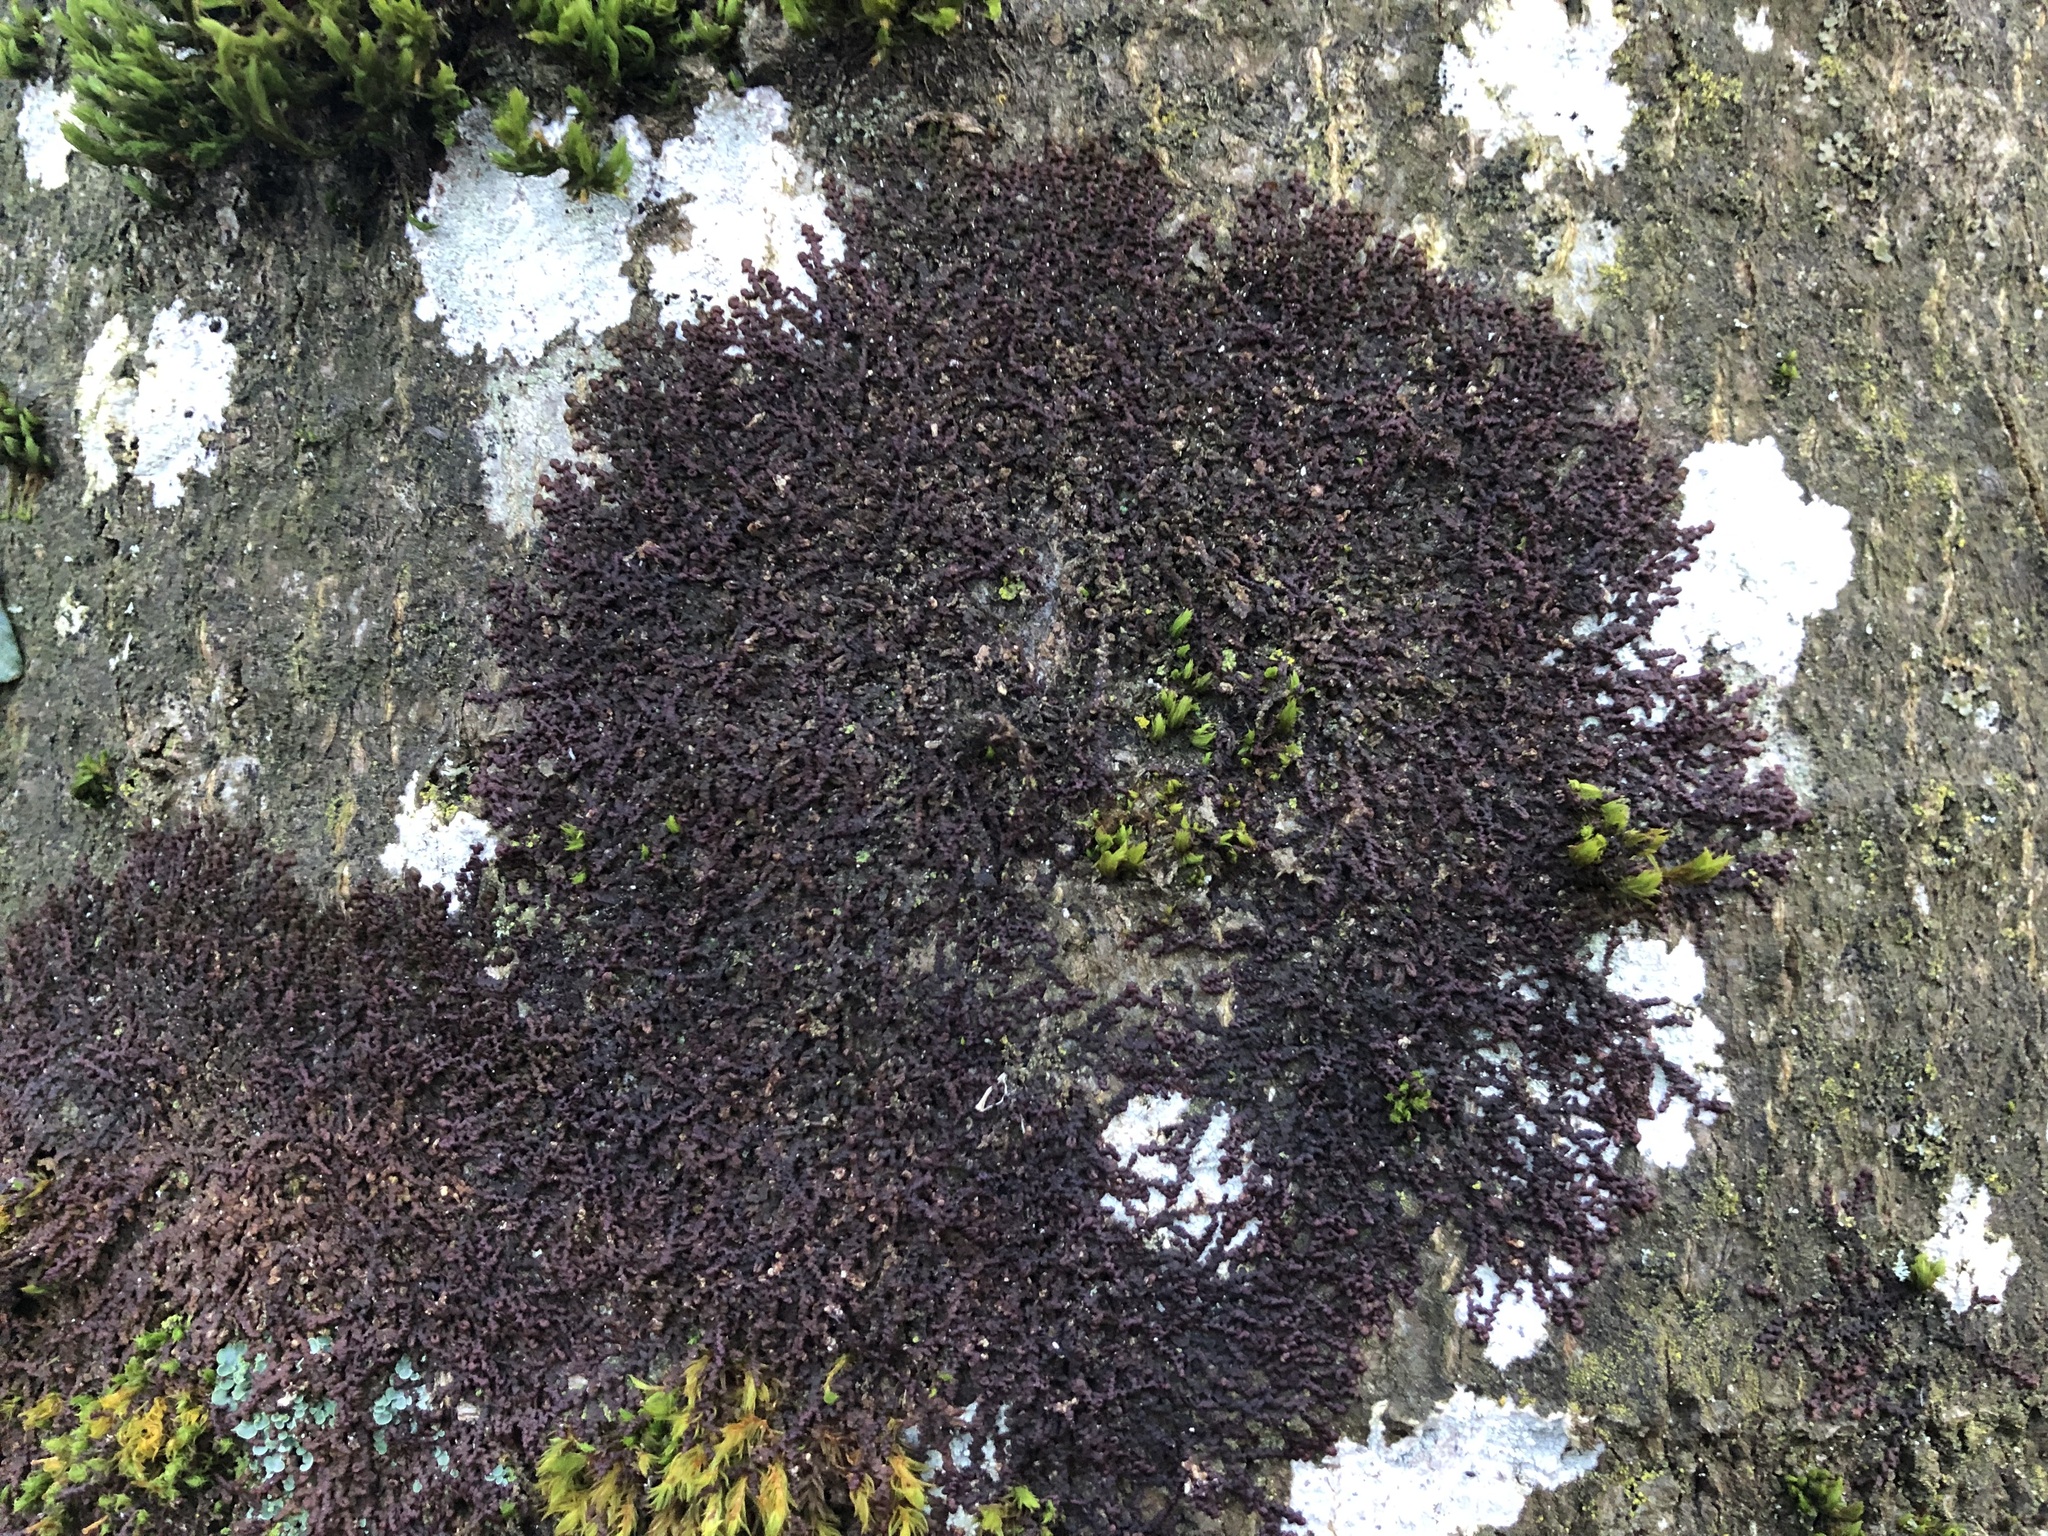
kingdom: Plantae
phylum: Marchantiophyta
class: Jungermanniopsida
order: Porellales
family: Frullaniaceae
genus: Frullania
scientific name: Frullania dilatata
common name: Dilated scalewort
